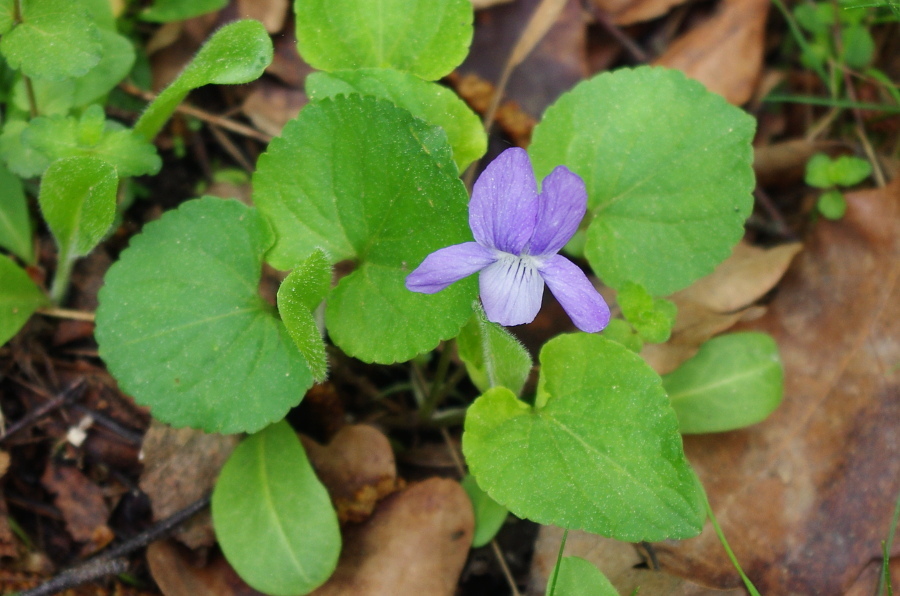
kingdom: Plantae
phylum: Tracheophyta
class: Magnoliopsida
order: Malpighiales
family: Violaceae
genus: Viola
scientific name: Viola rupestris
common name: Teesdale violet
